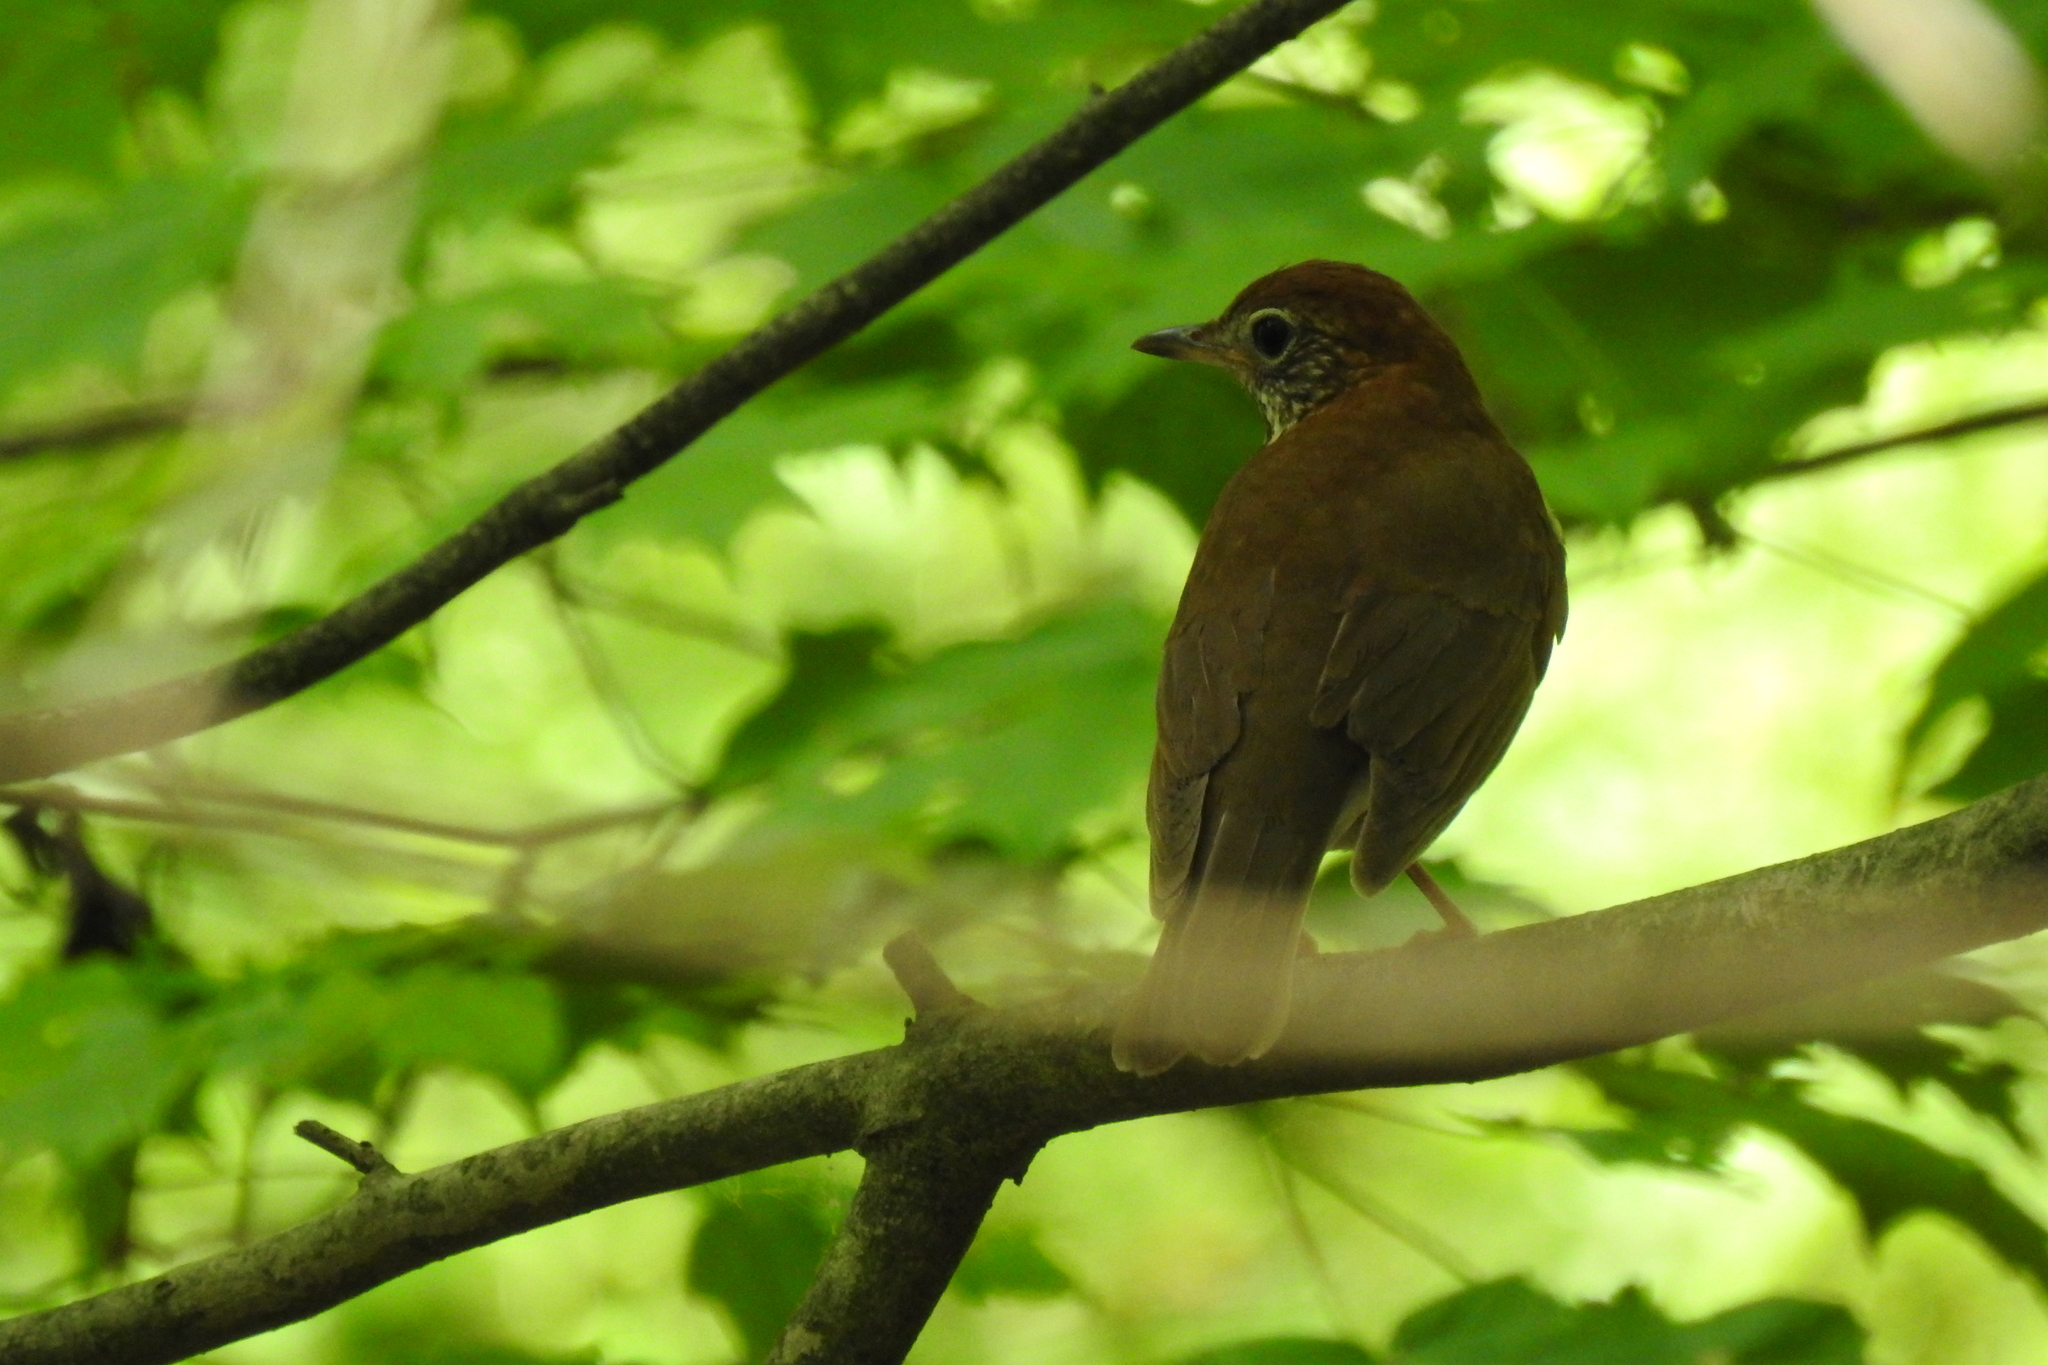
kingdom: Animalia
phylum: Chordata
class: Aves
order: Passeriformes
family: Turdidae
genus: Hylocichla
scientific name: Hylocichla mustelina
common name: Wood thrush
